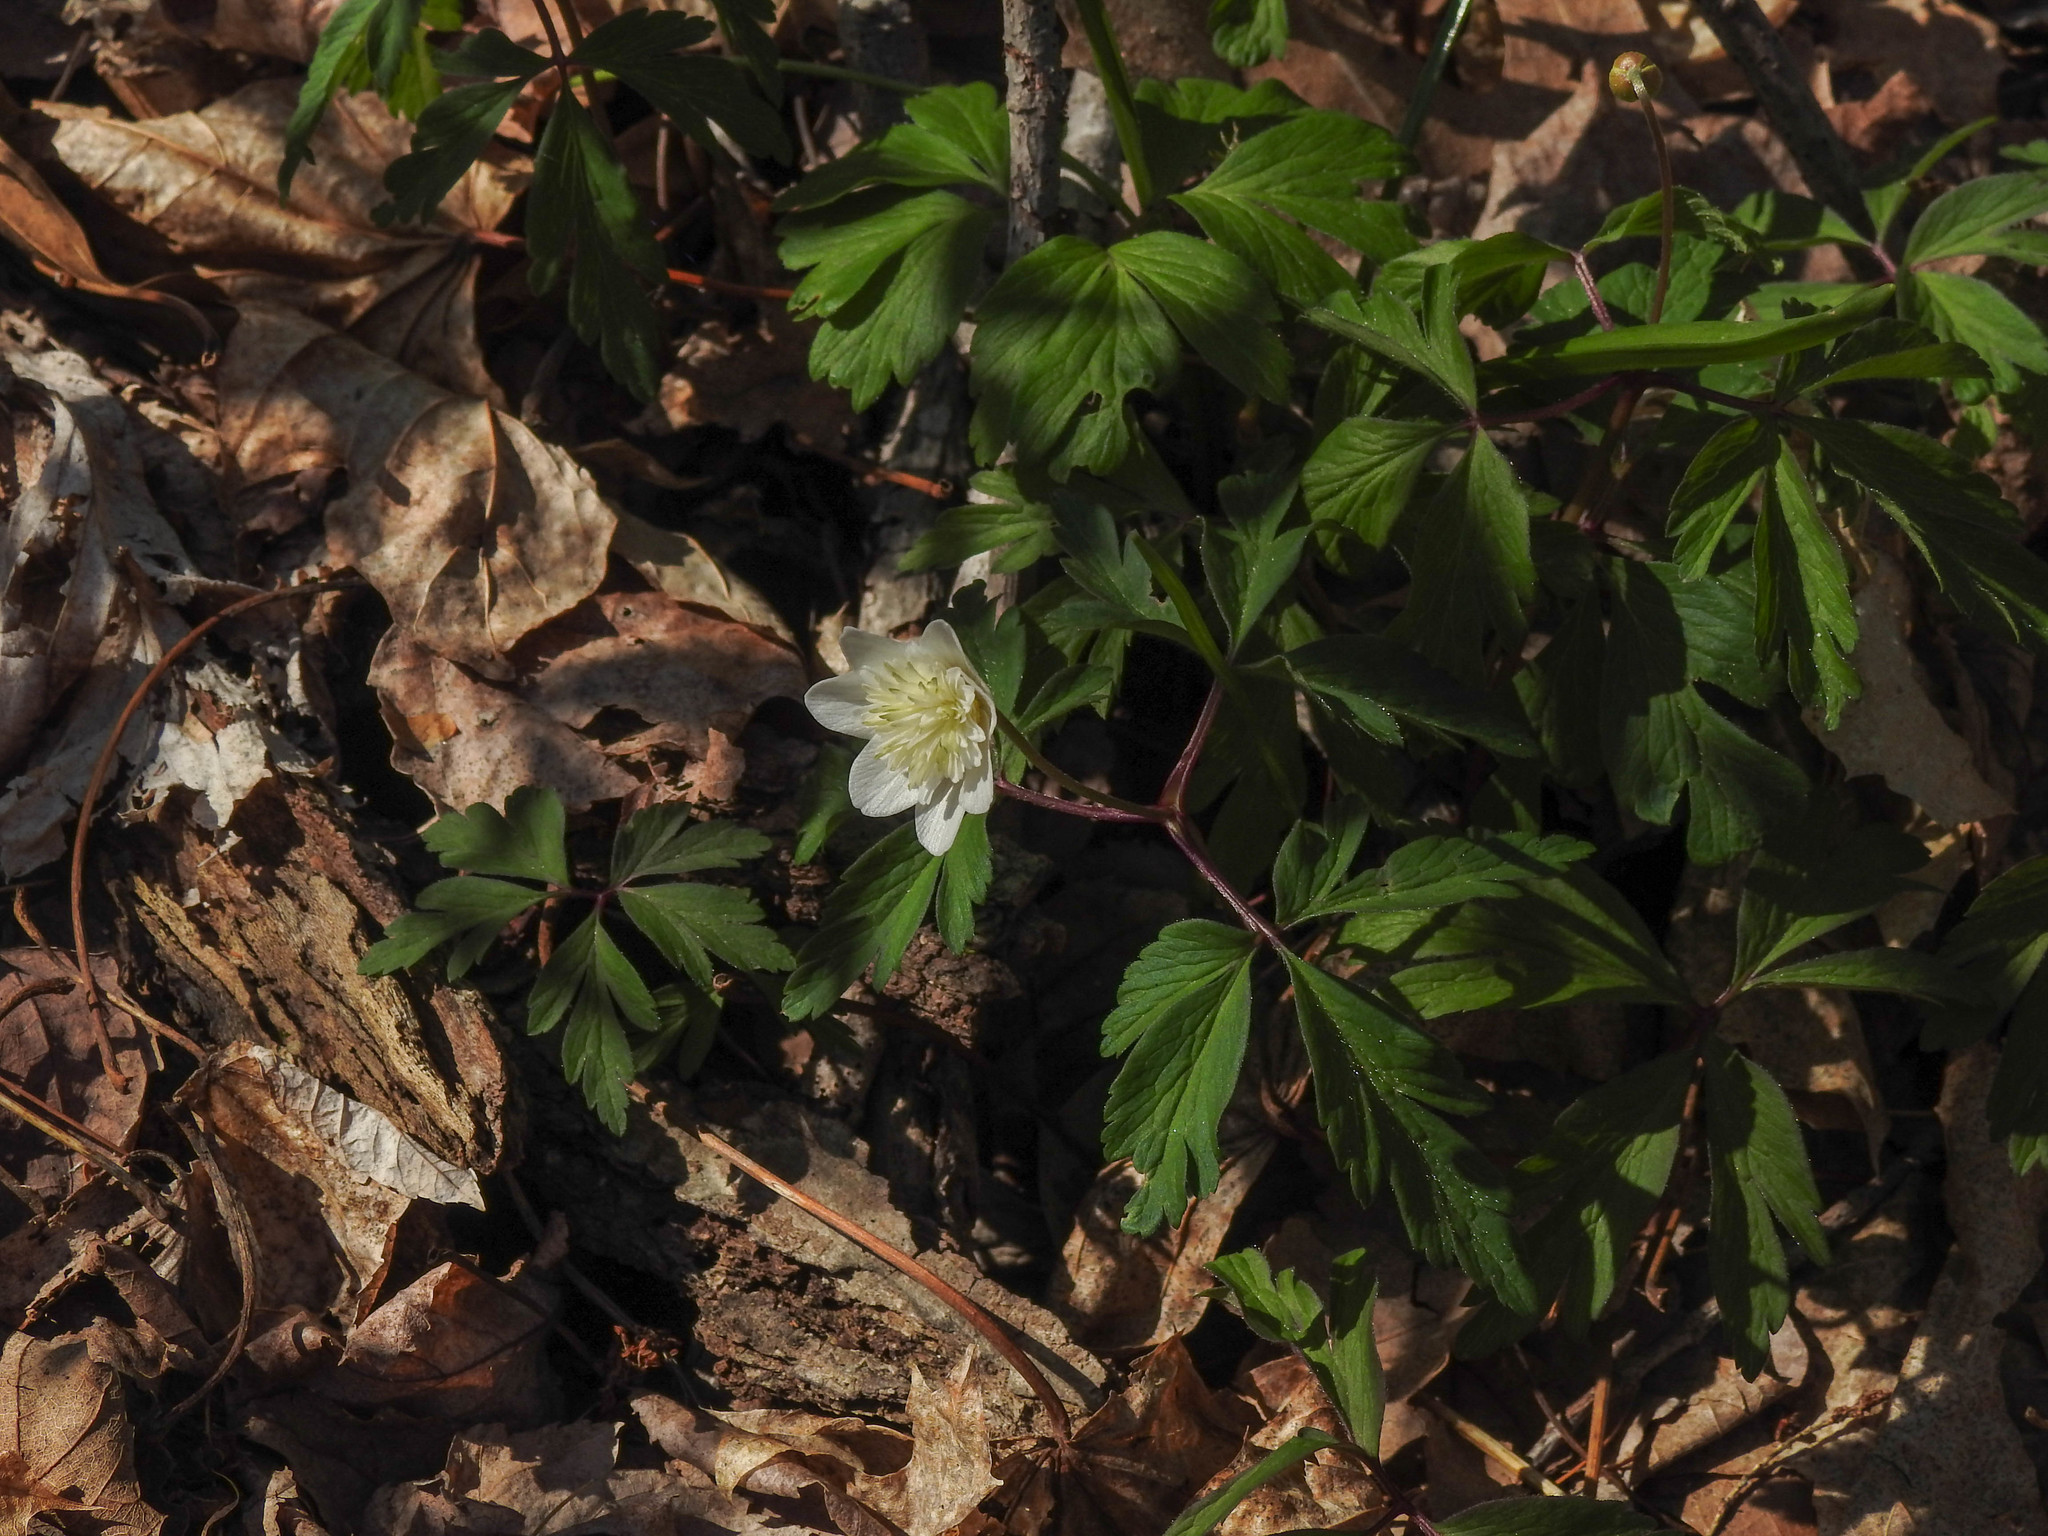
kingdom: Plantae
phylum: Tracheophyta
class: Magnoliopsida
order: Ranunculales
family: Ranunculaceae
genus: Anemone
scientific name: Anemone nemorosa
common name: Wood anemone
